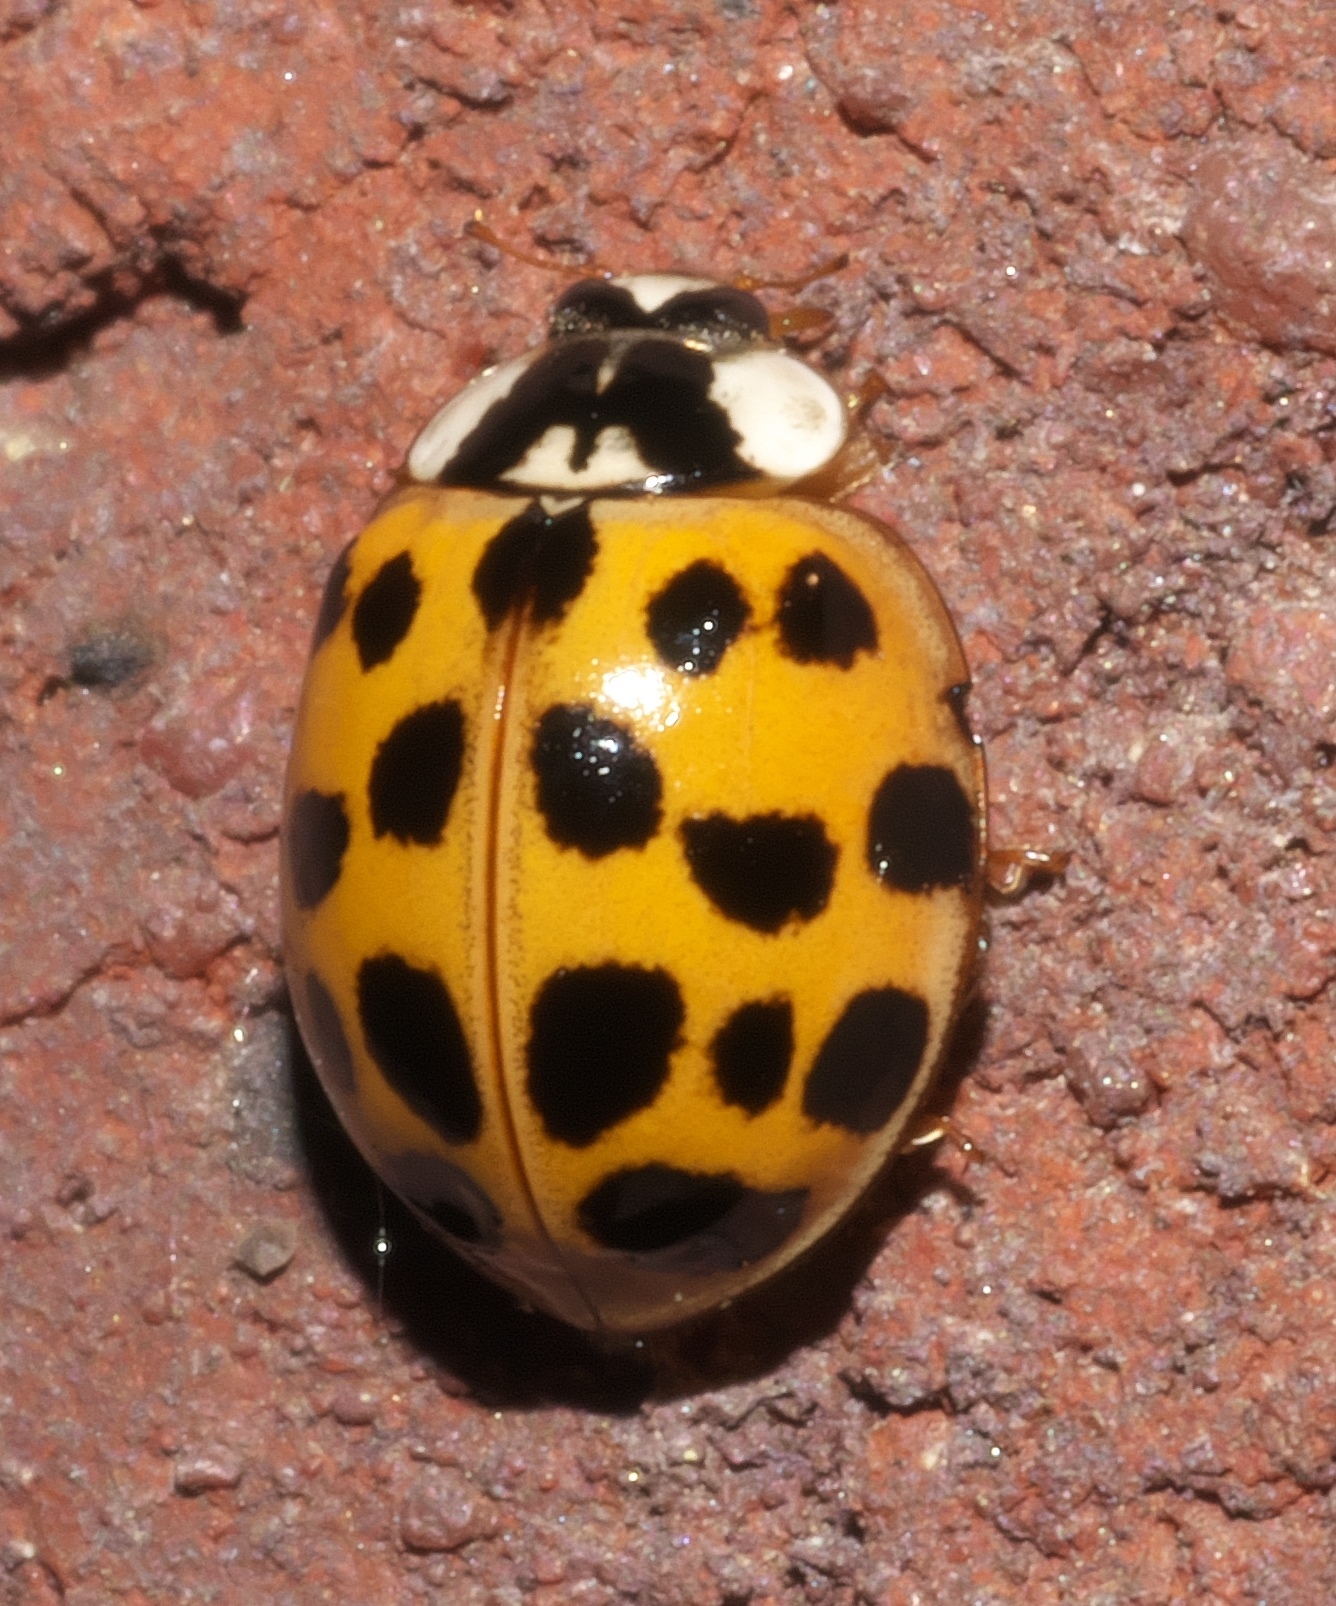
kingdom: Animalia
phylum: Arthropoda
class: Insecta
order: Coleoptera
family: Coccinellidae
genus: Harmonia
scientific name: Harmonia axyridis
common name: Harlequin ladybird
